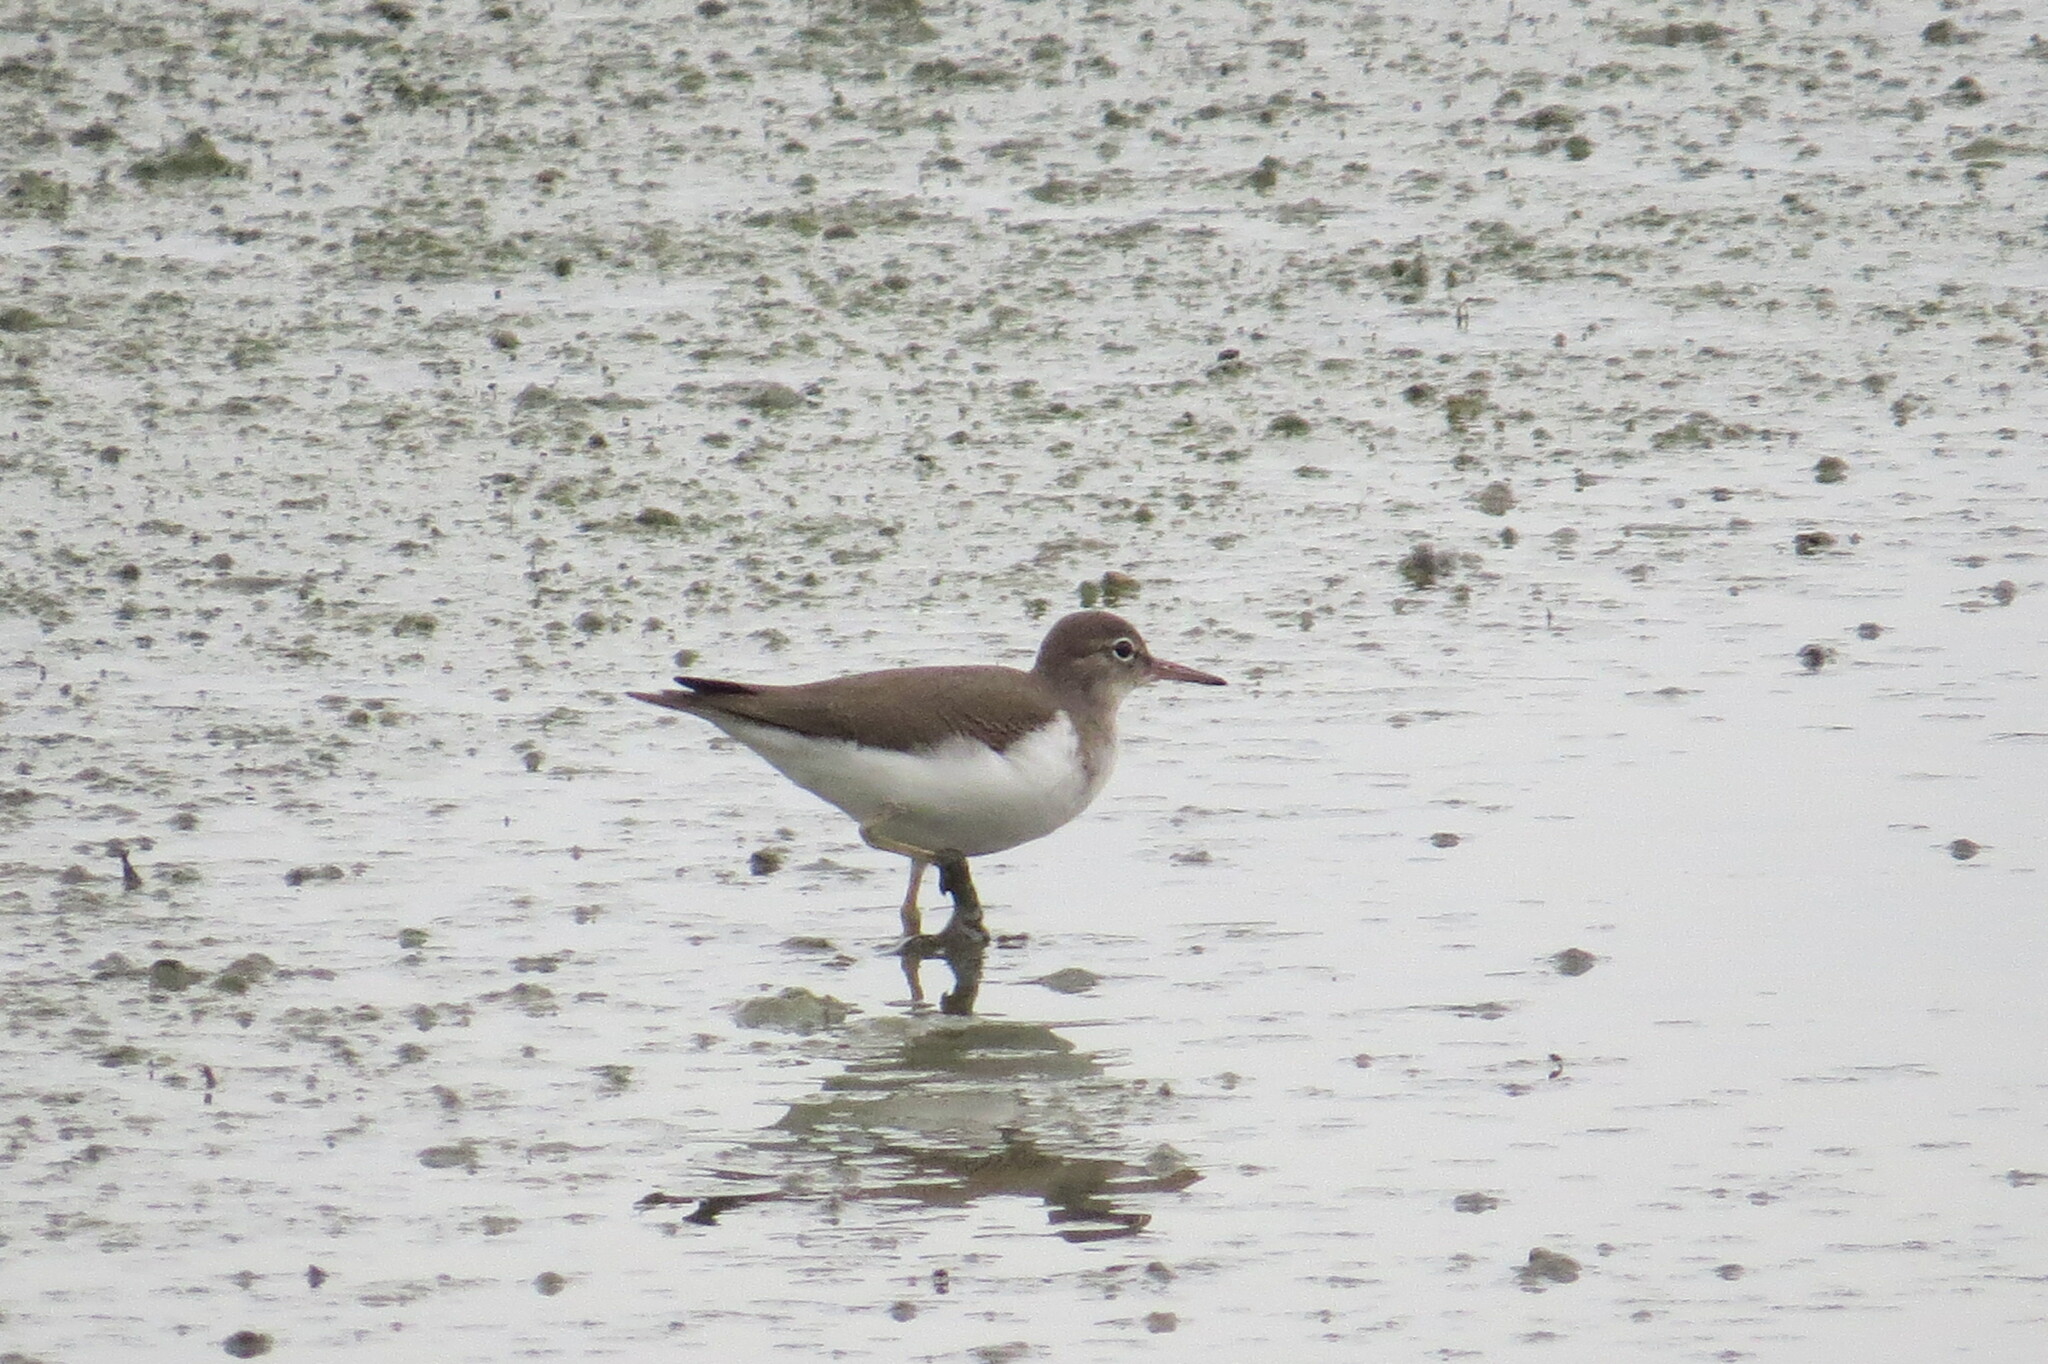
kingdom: Animalia
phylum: Chordata
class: Aves
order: Charadriiformes
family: Scolopacidae
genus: Actitis
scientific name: Actitis macularius
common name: Spotted sandpiper
